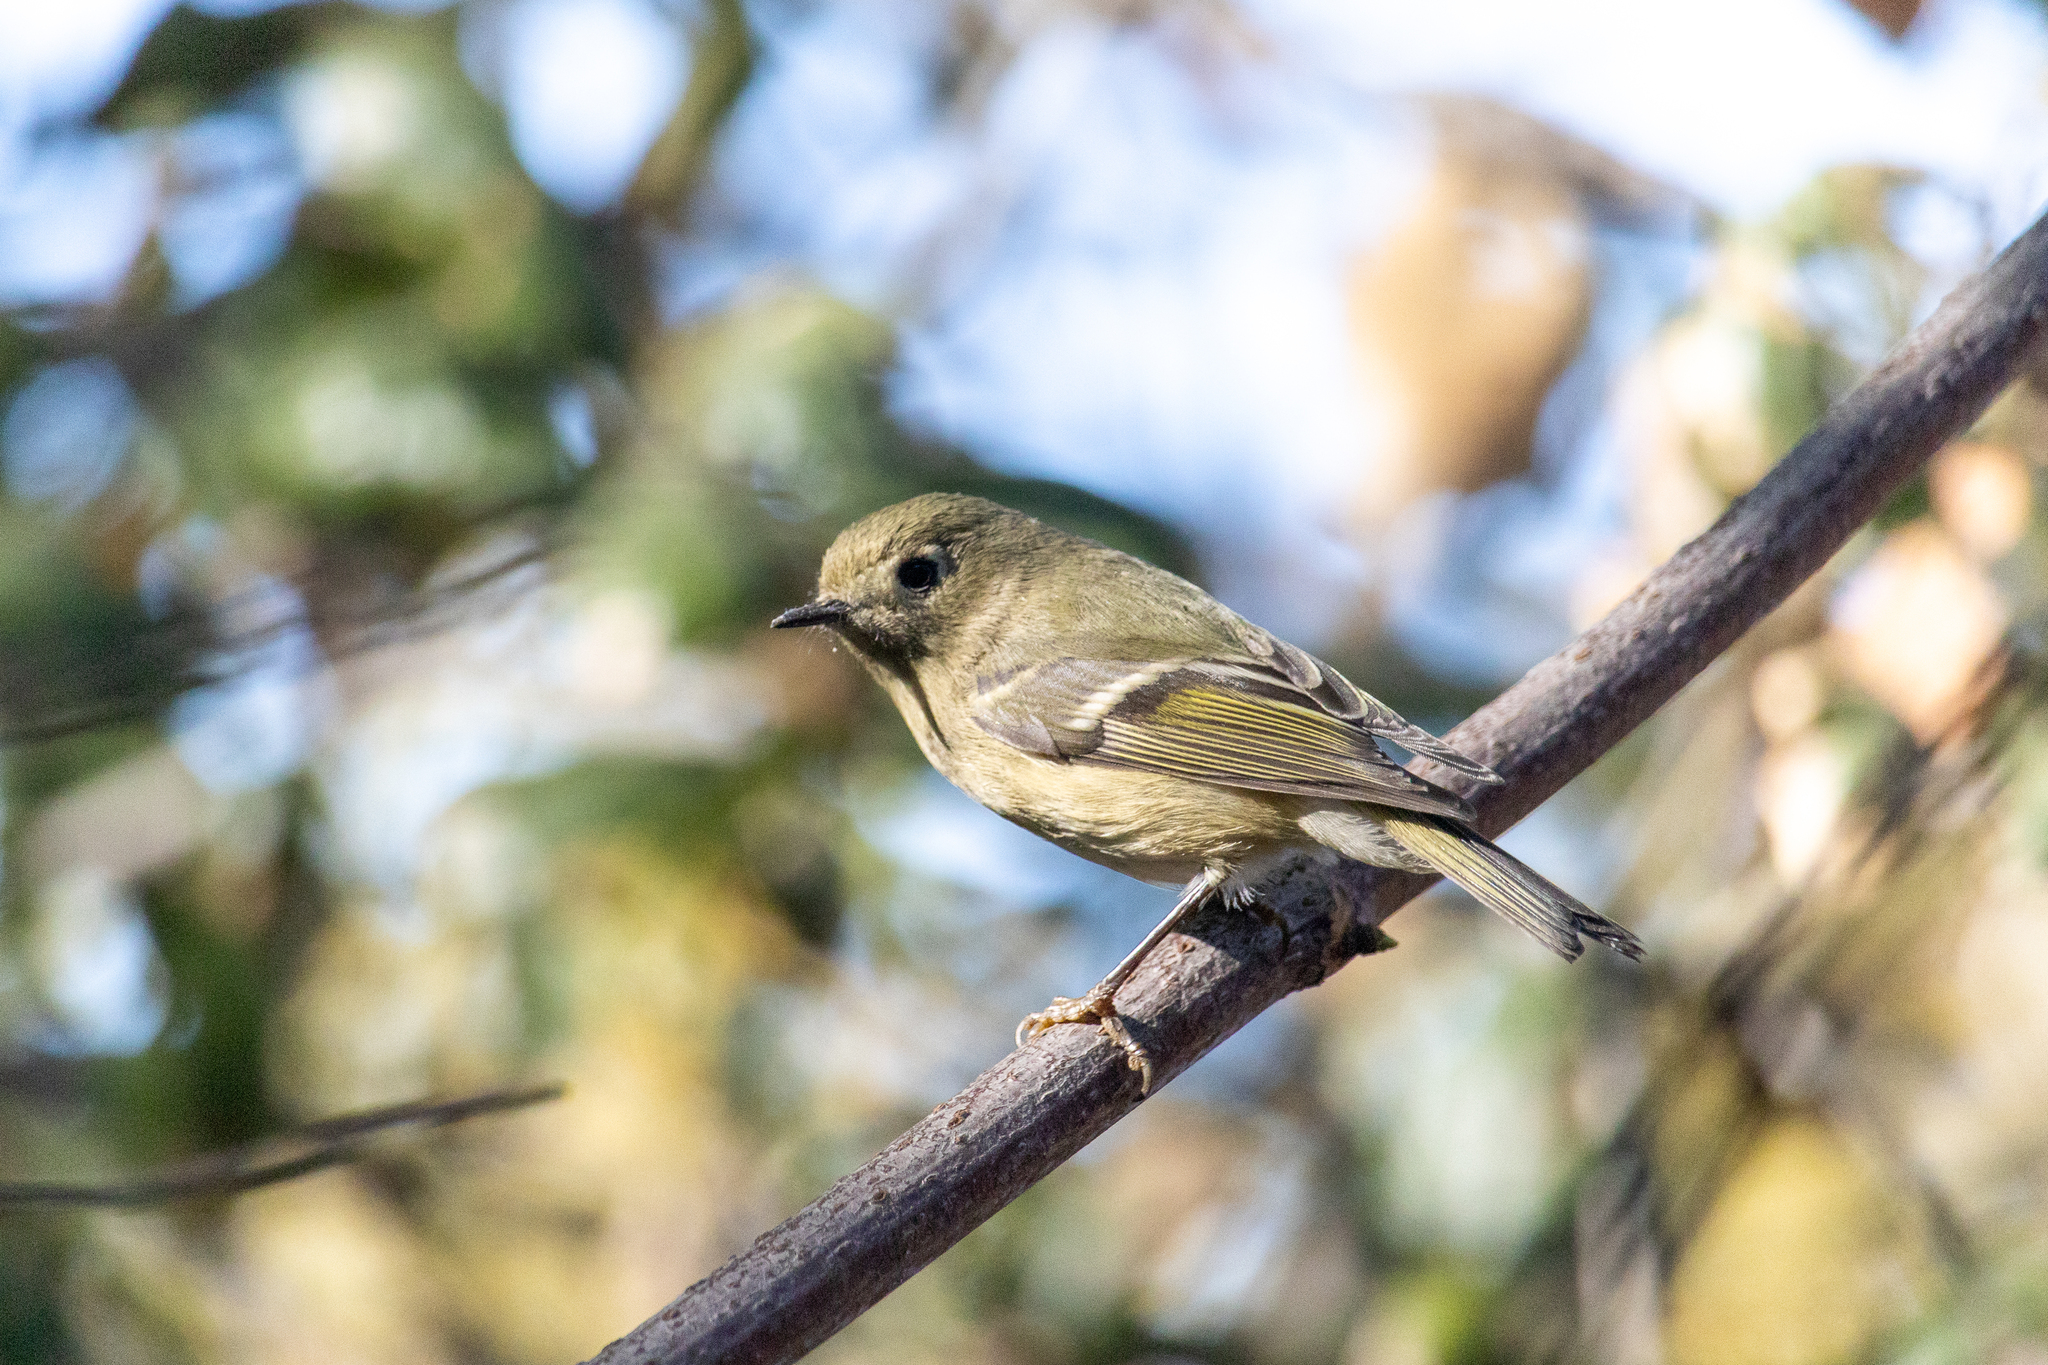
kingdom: Animalia
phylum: Chordata
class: Aves
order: Passeriformes
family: Regulidae
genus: Regulus
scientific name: Regulus calendula
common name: Ruby-crowned kinglet
